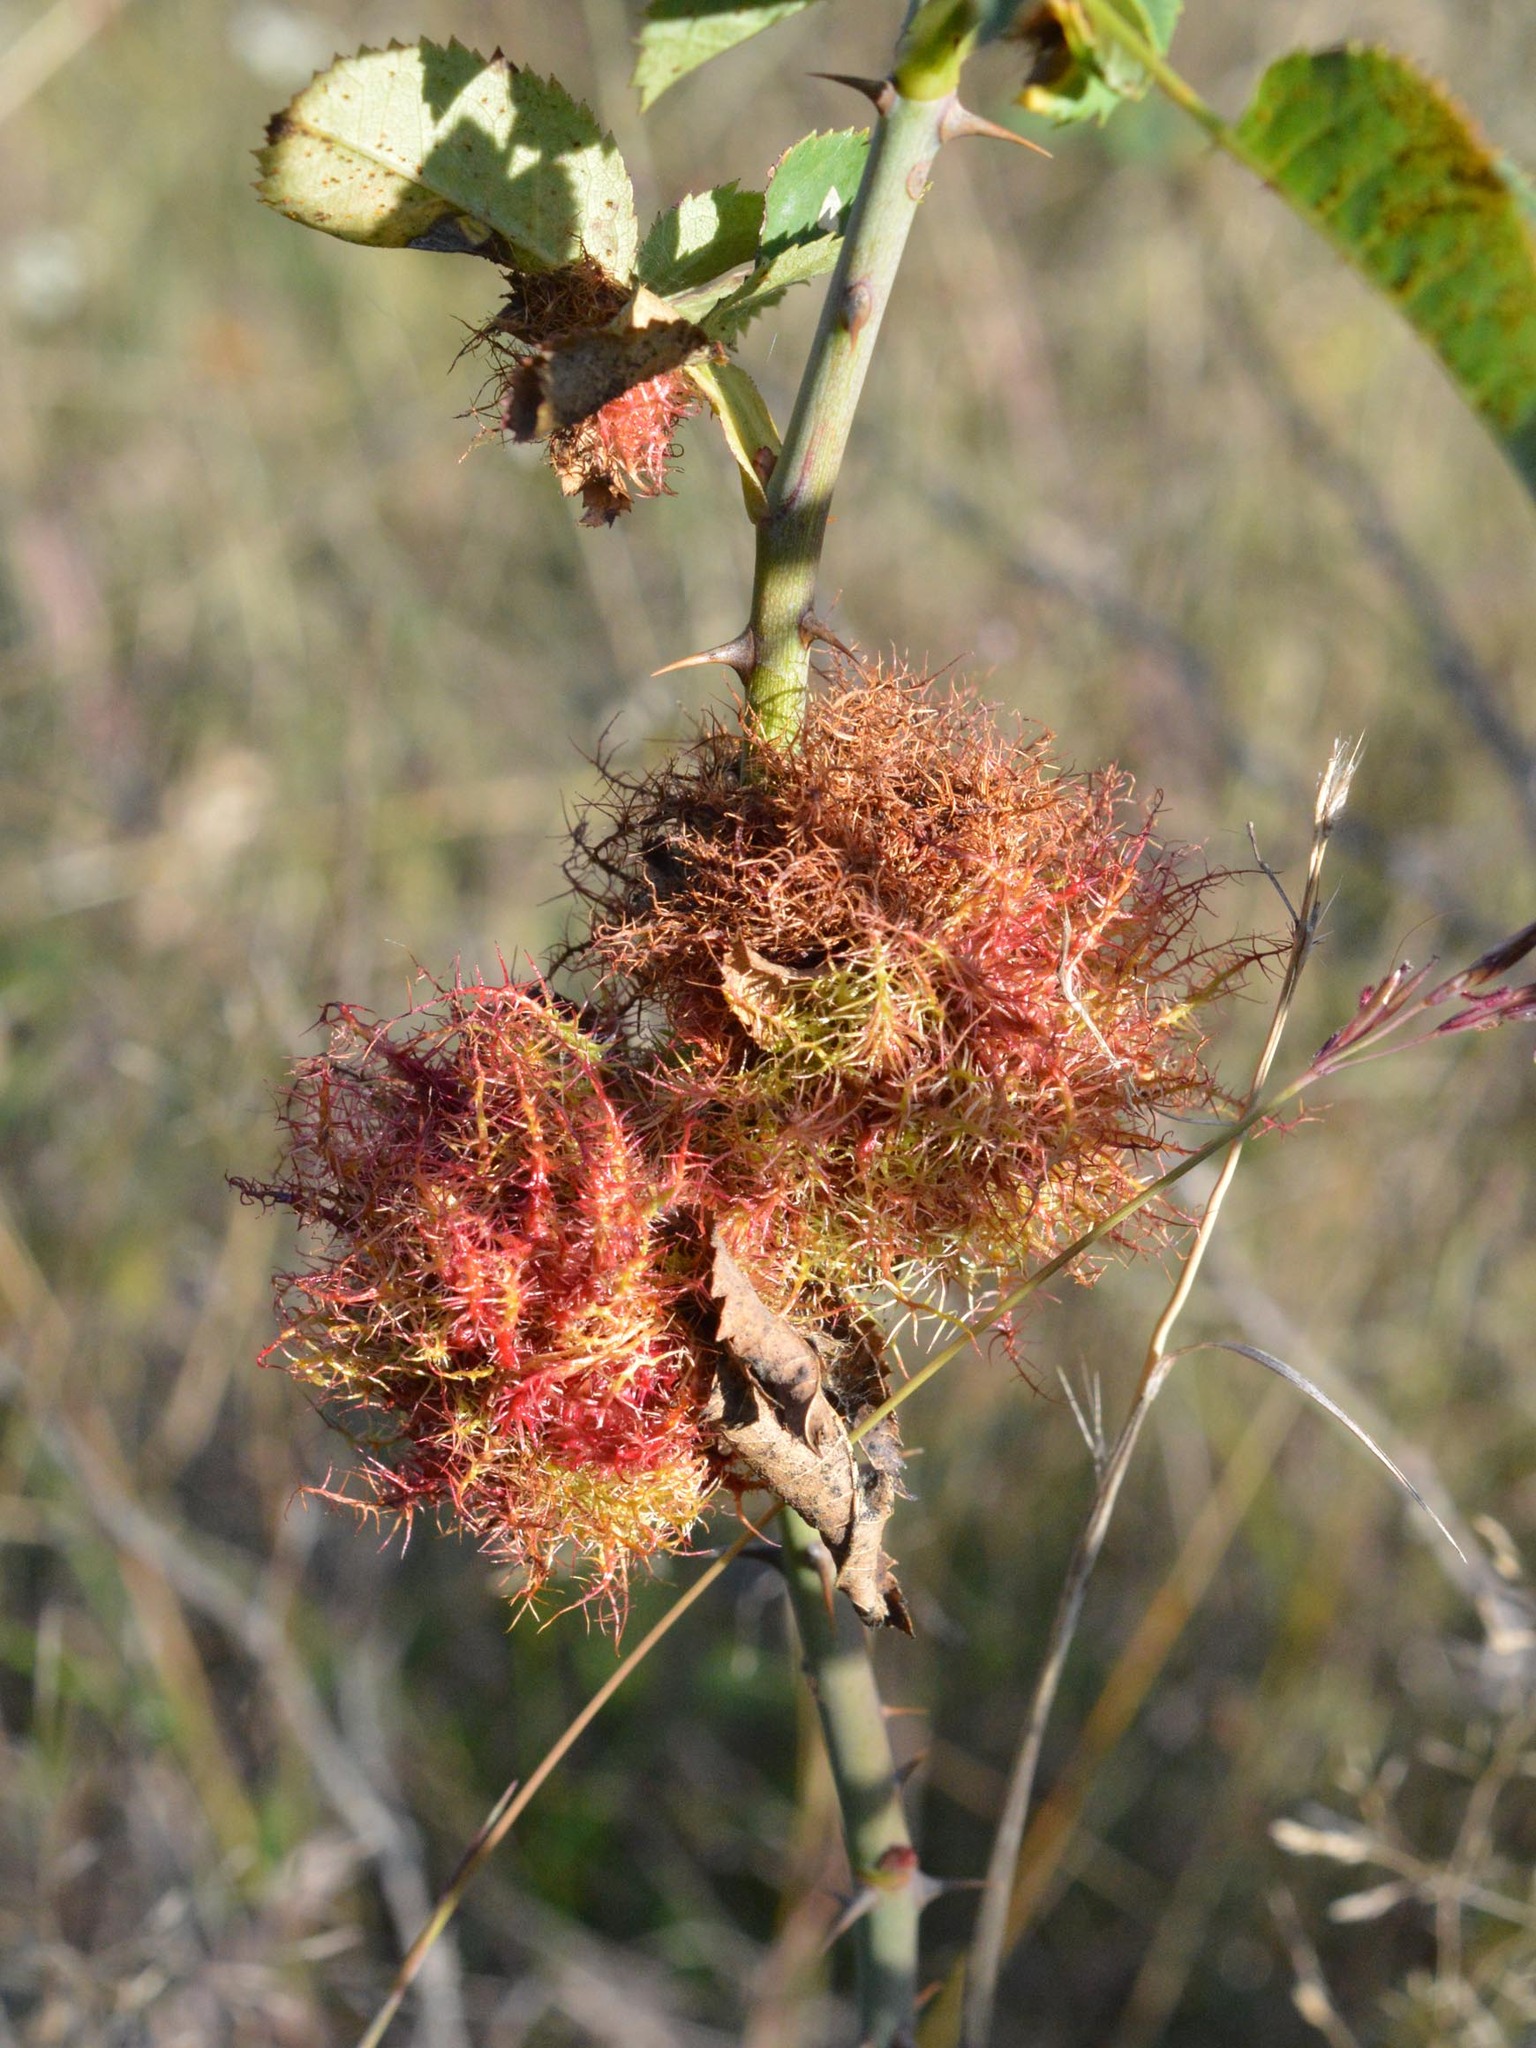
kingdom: Animalia
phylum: Arthropoda
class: Insecta
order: Hymenoptera
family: Cynipidae
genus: Diplolepis
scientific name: Diplolepis rosae
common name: Bedeguar gall
